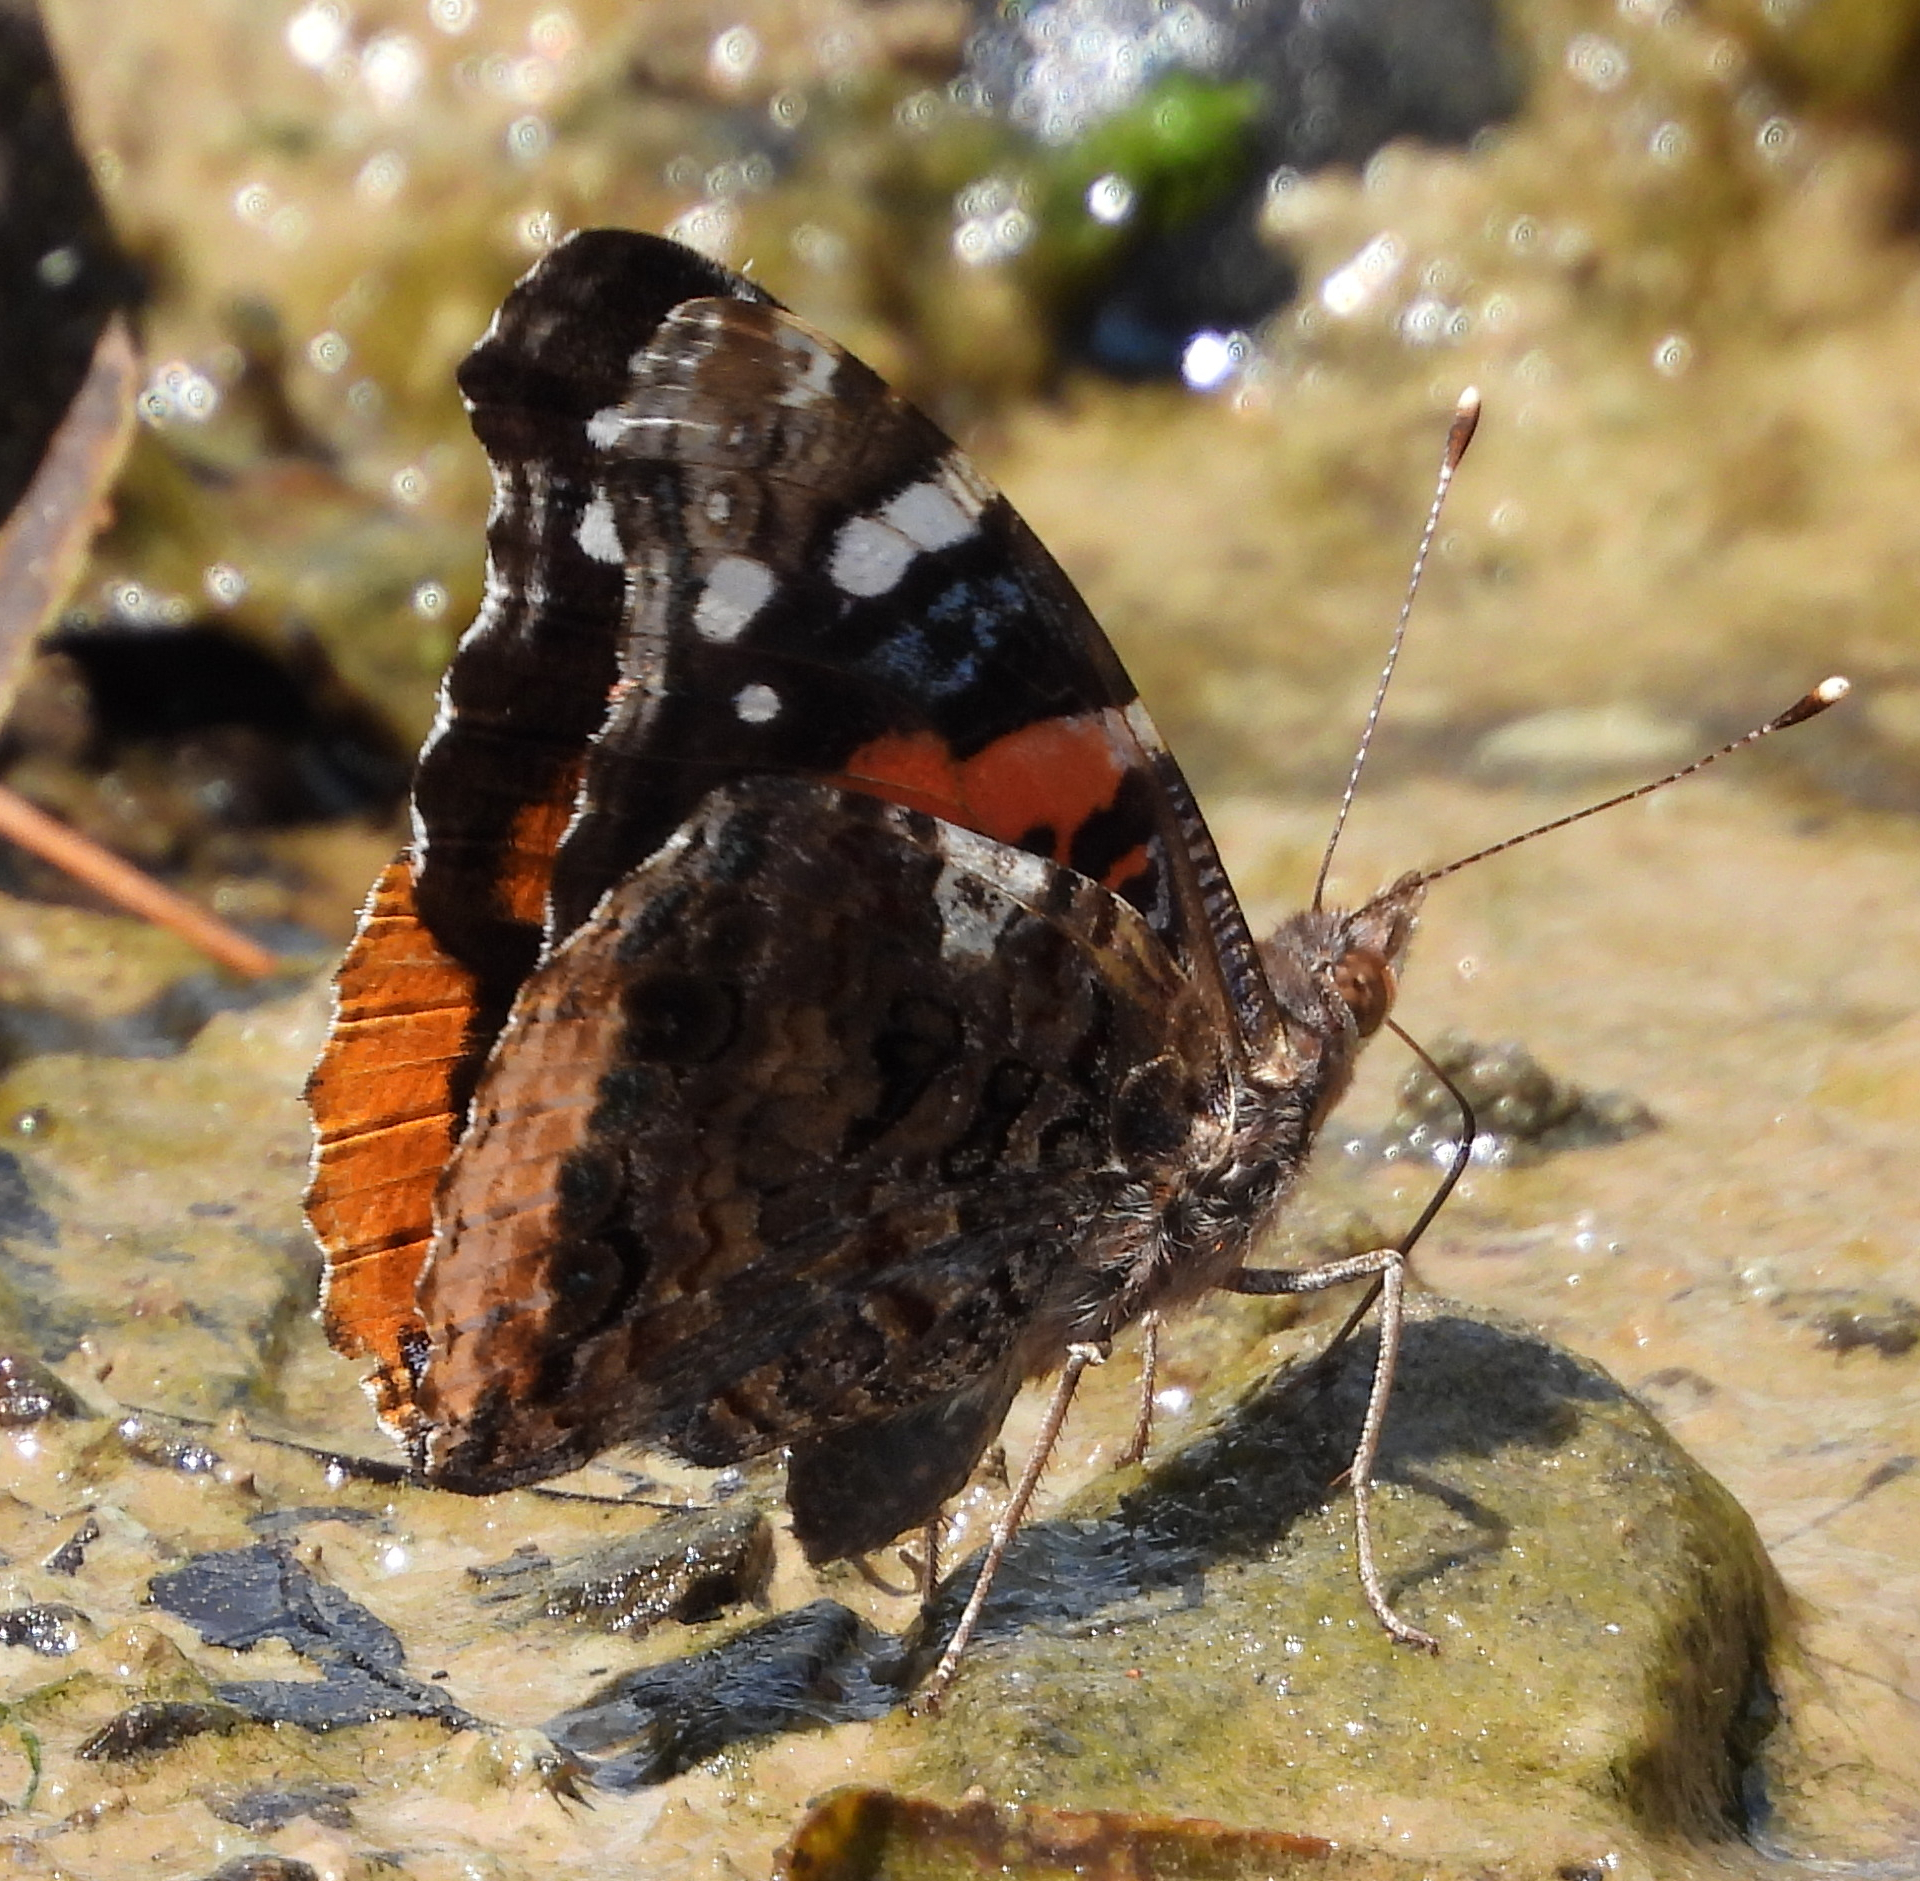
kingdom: Animalia
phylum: Arthropoda
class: Insecta
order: Lepidoptera
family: Nymphalidae
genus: Vanessa
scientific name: Vanessa atalanta
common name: Red admiral
